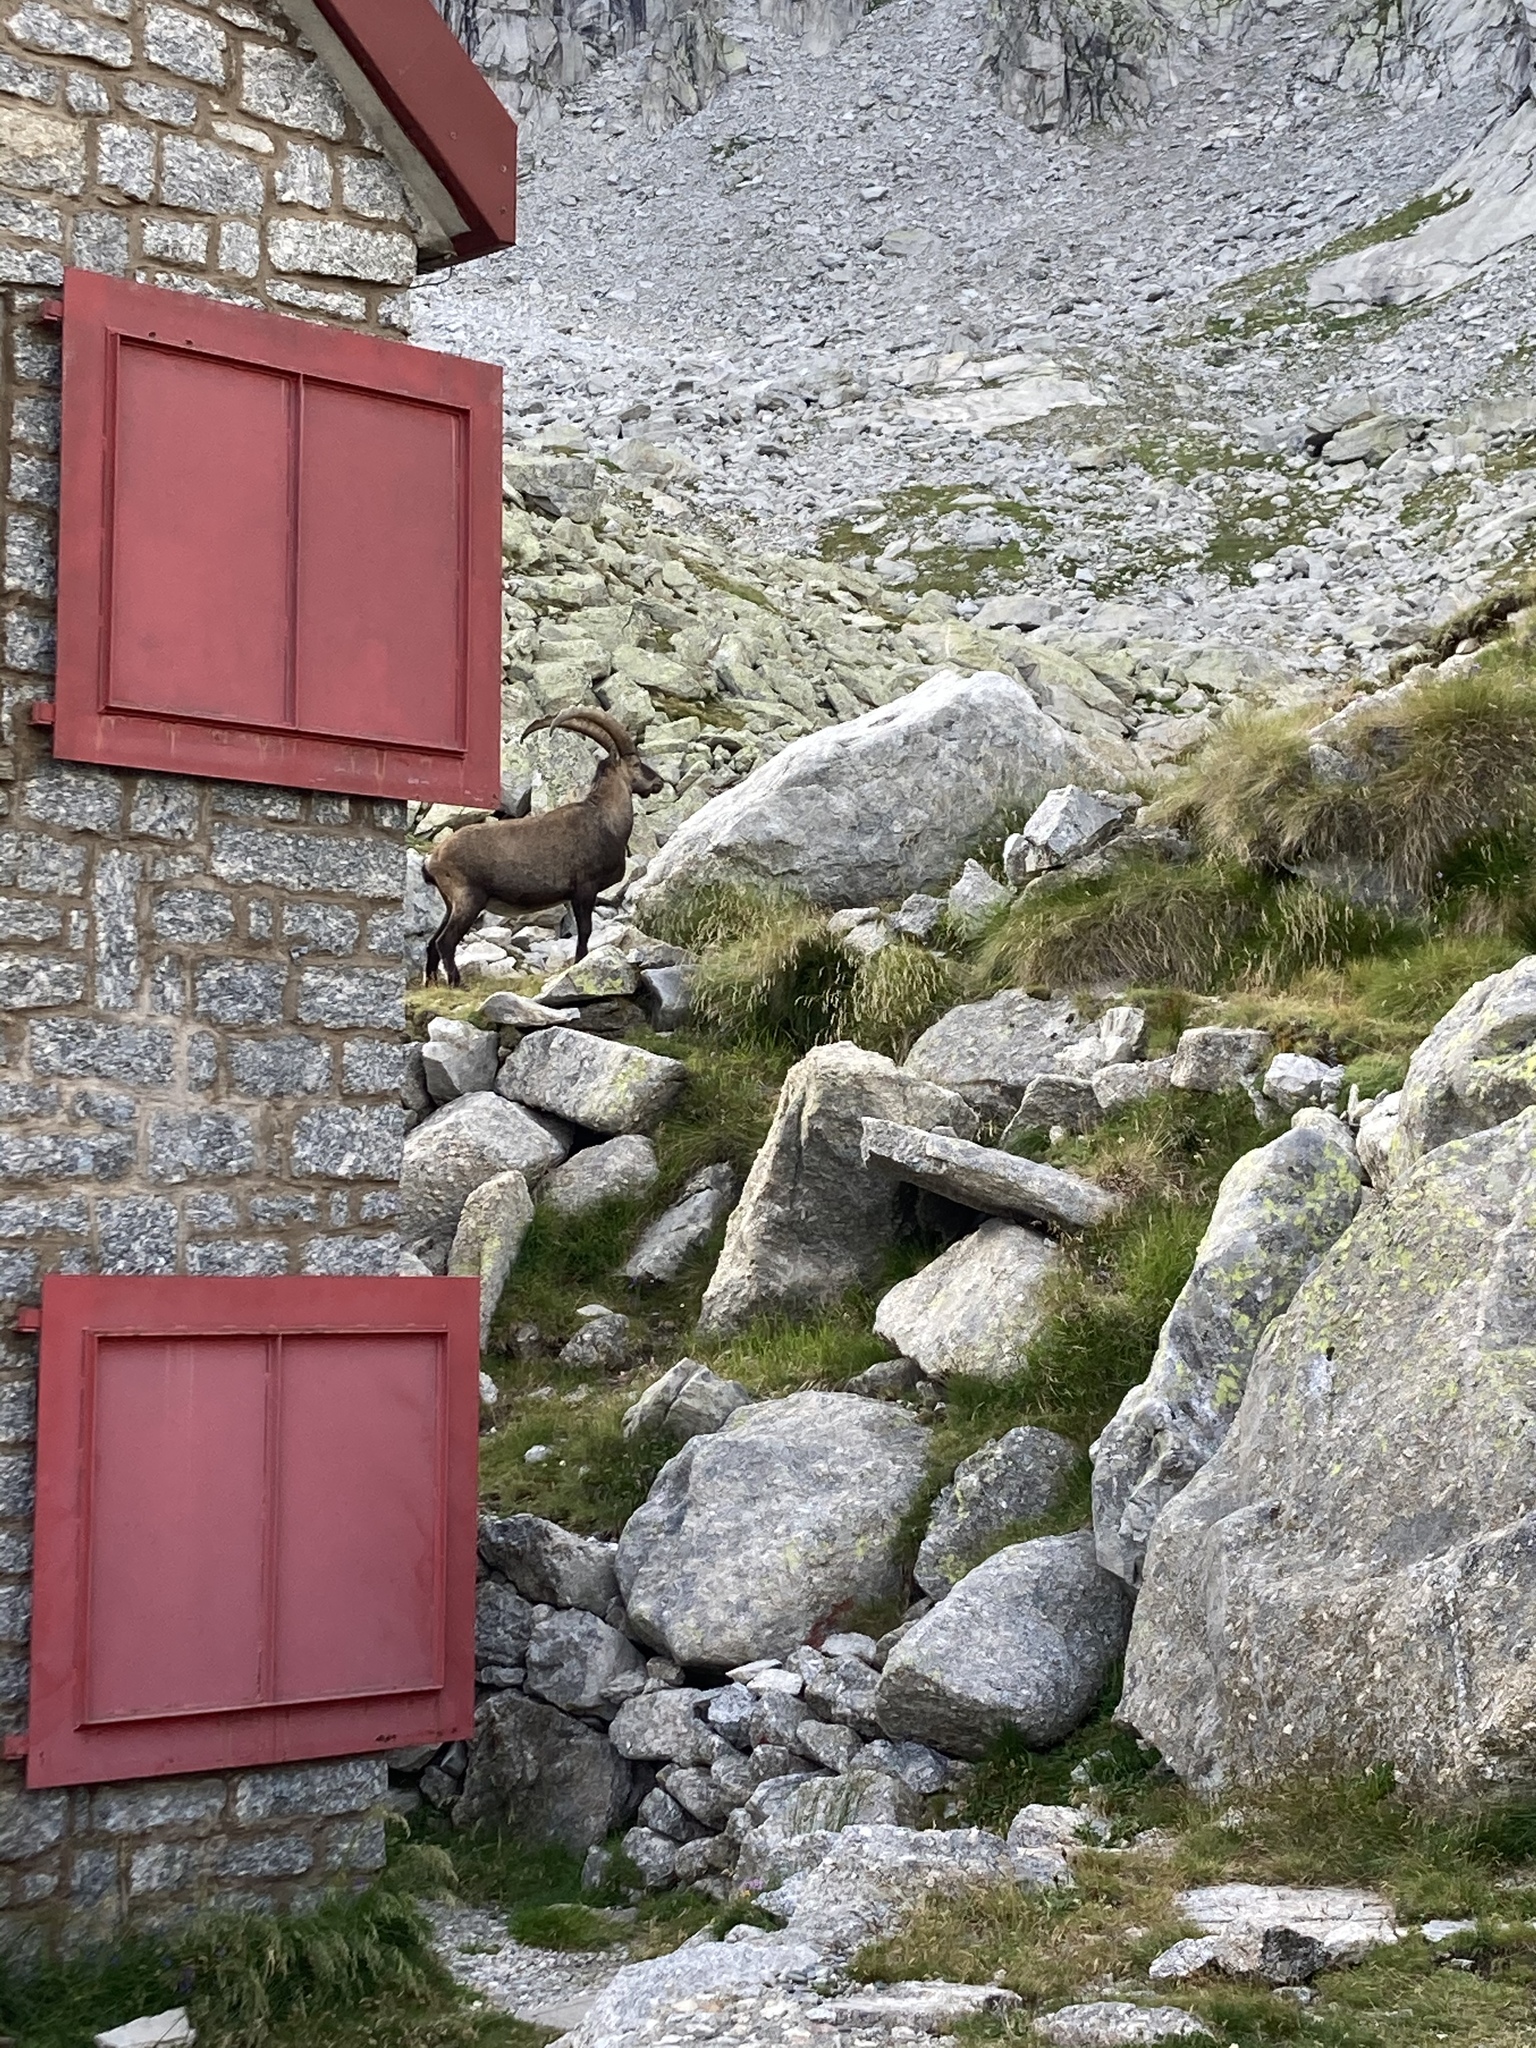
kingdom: Animalia
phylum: Chordata
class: Mammalia
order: Artiodactyla
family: Bovidae
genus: Capra
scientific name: Capra ibex
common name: Alpine ibex
